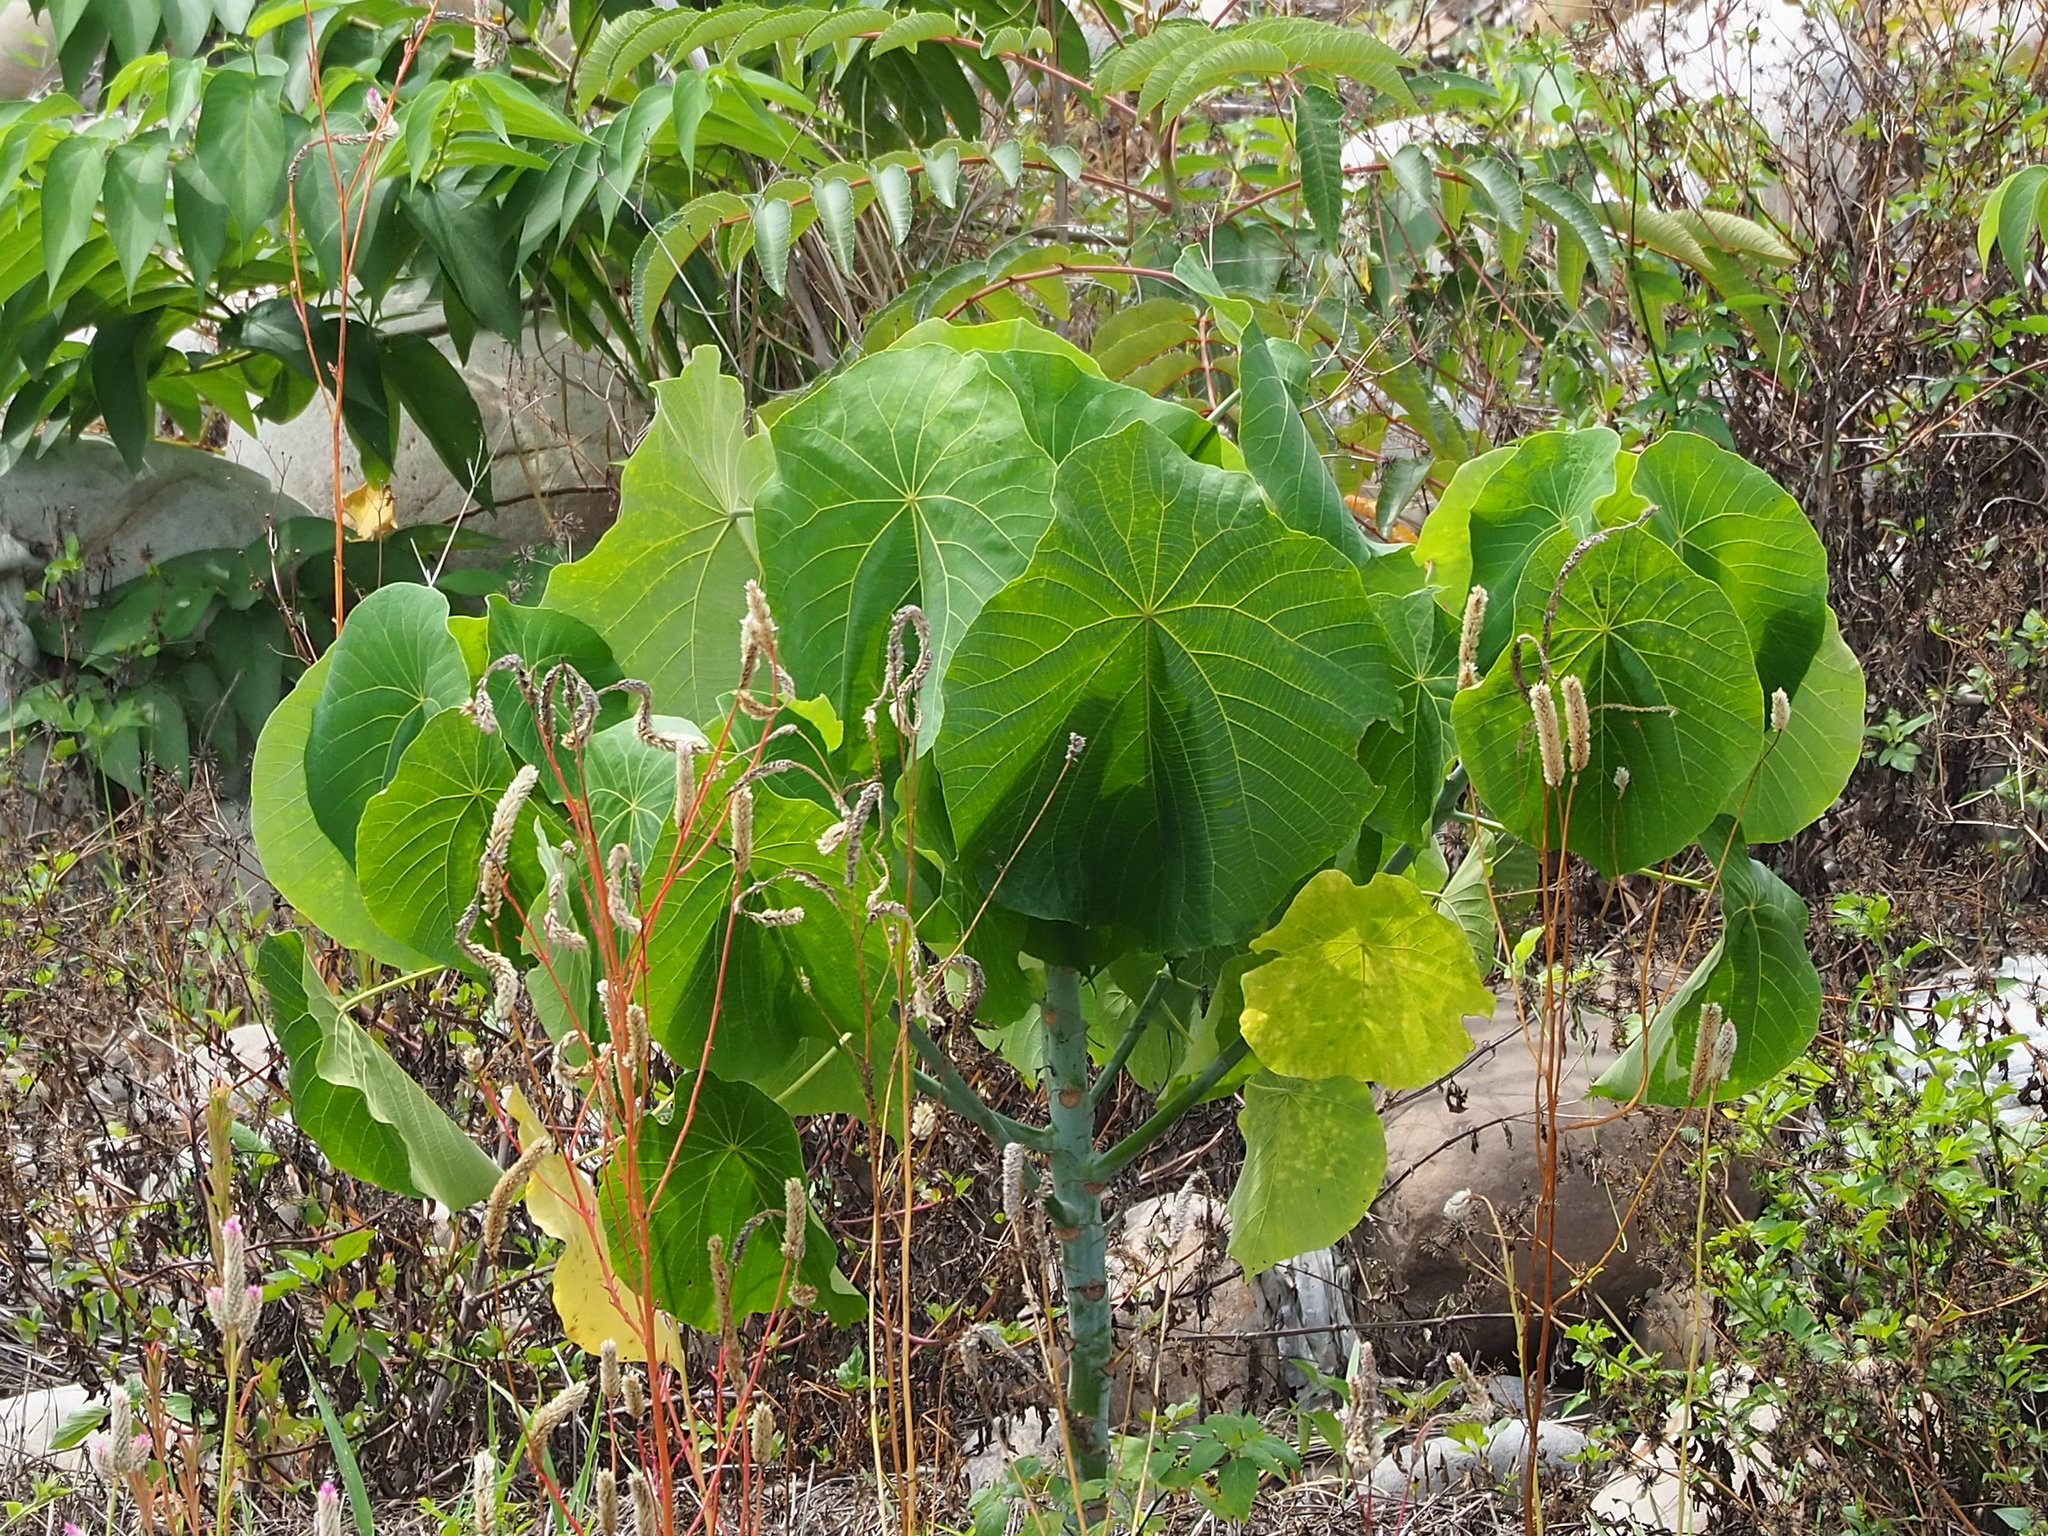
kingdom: Plantae
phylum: Tracheophyta
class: Magnoliopsida
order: Malpighiales
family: Euphorbiaceae
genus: Macaranga
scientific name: Macaranga tanarius
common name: Parasol leaf tree
